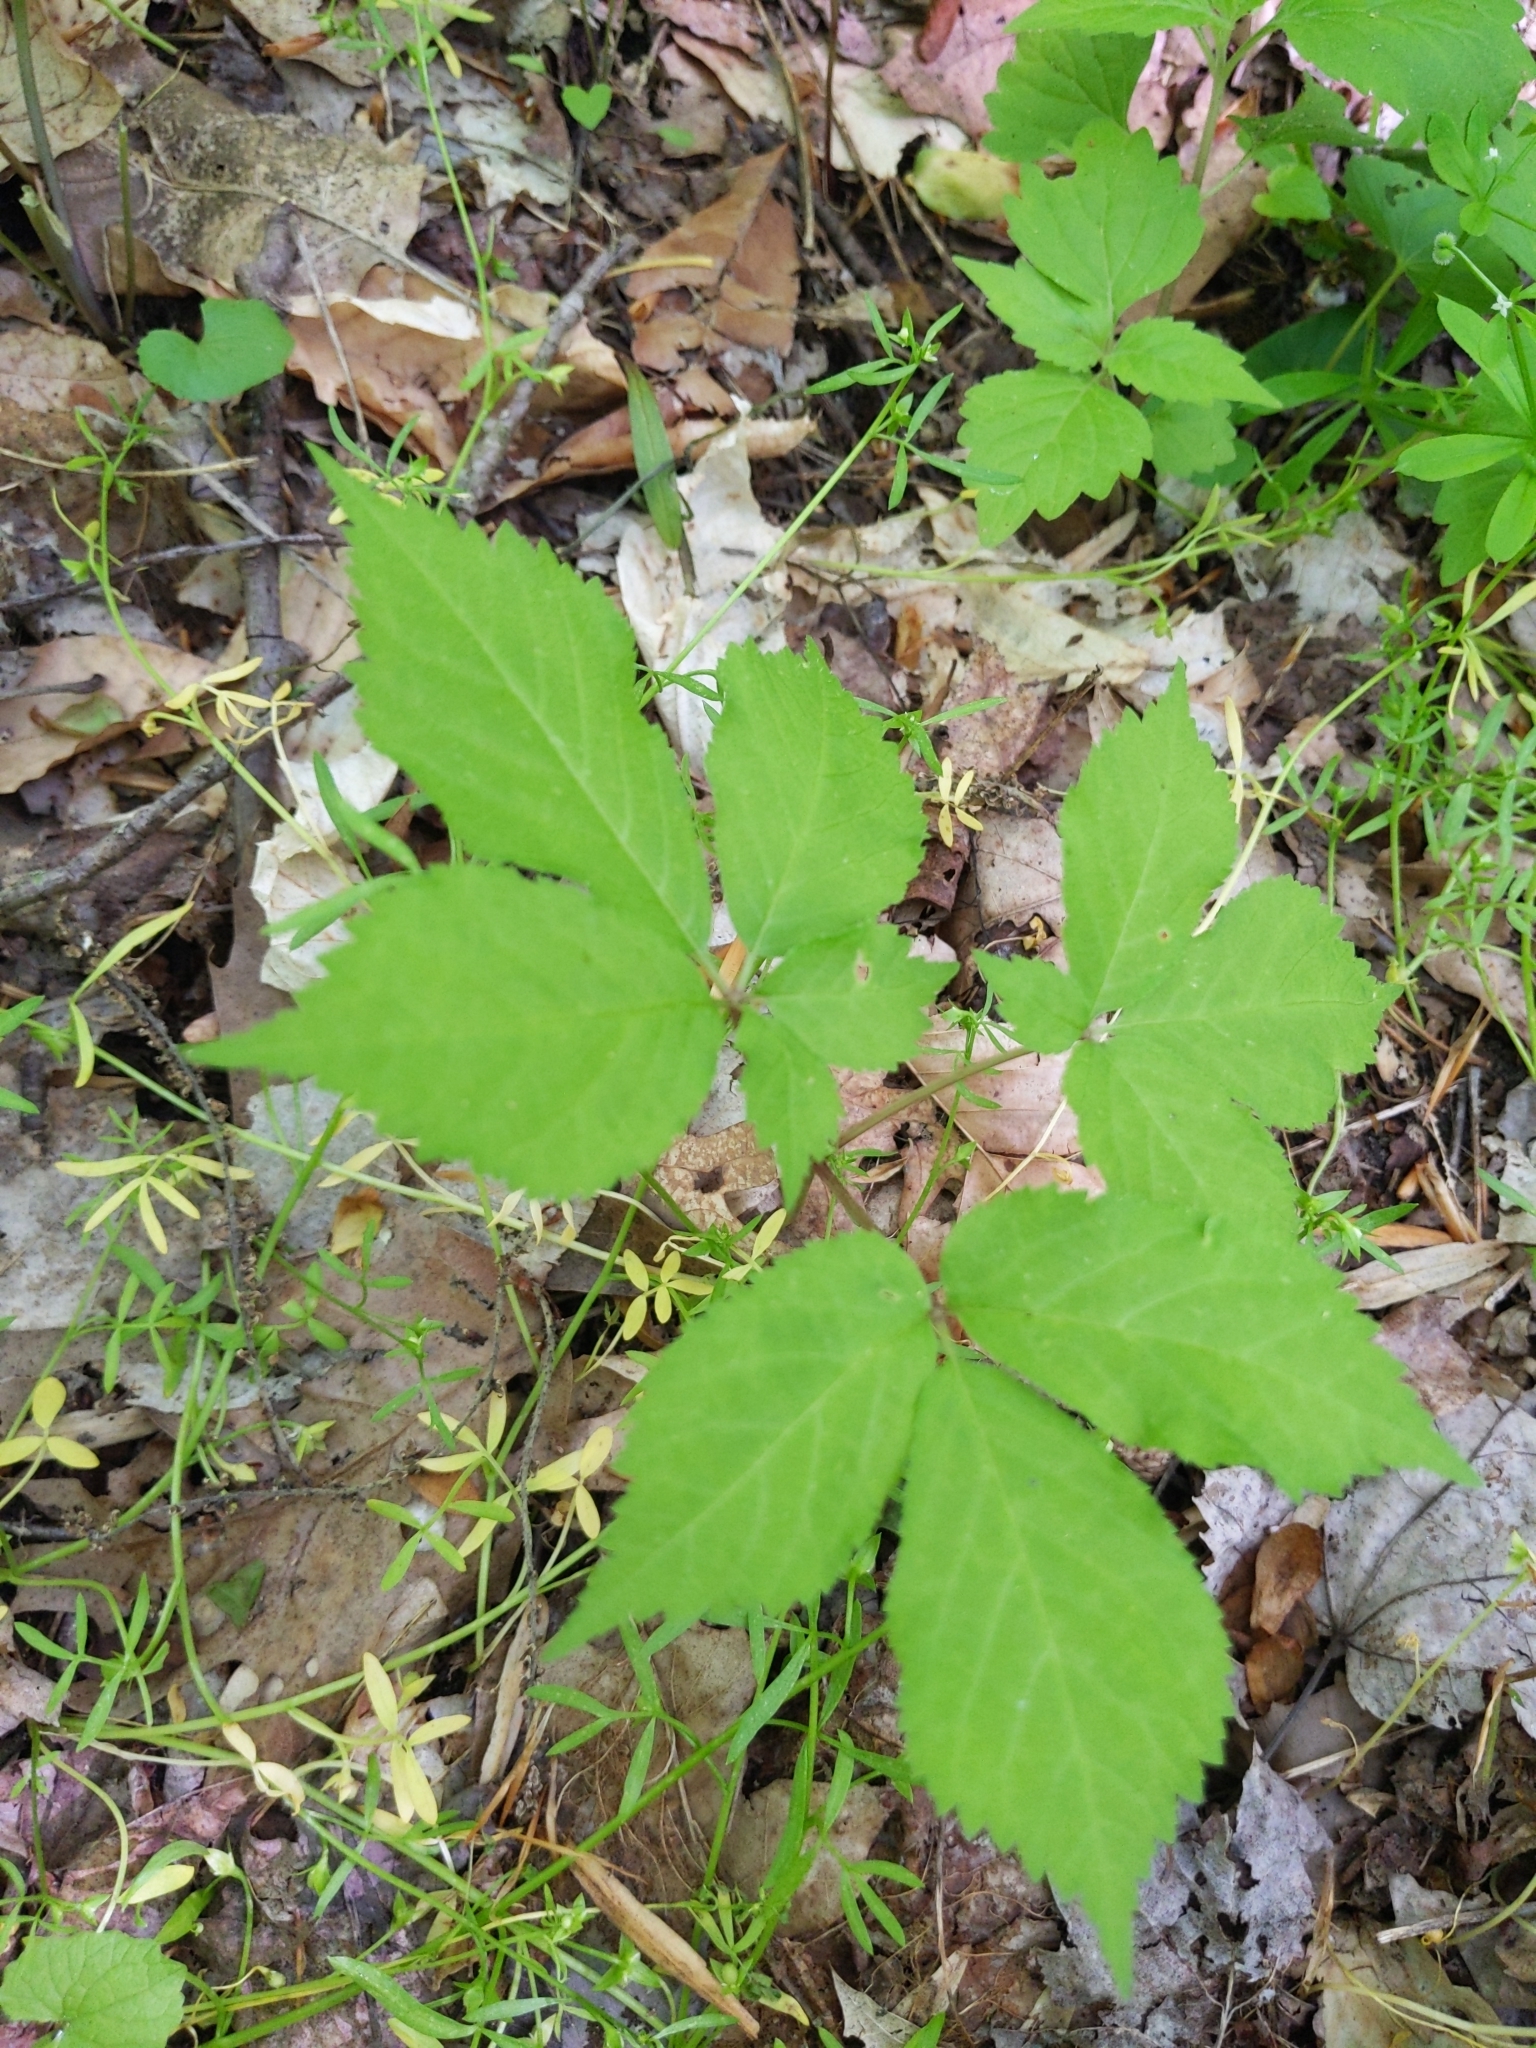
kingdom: Plantae
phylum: Tracheophyta
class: Magnoliopsida
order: Apiales
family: Araliaceae
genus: Panax
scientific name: Panax quinquefolius
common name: American ginseng
